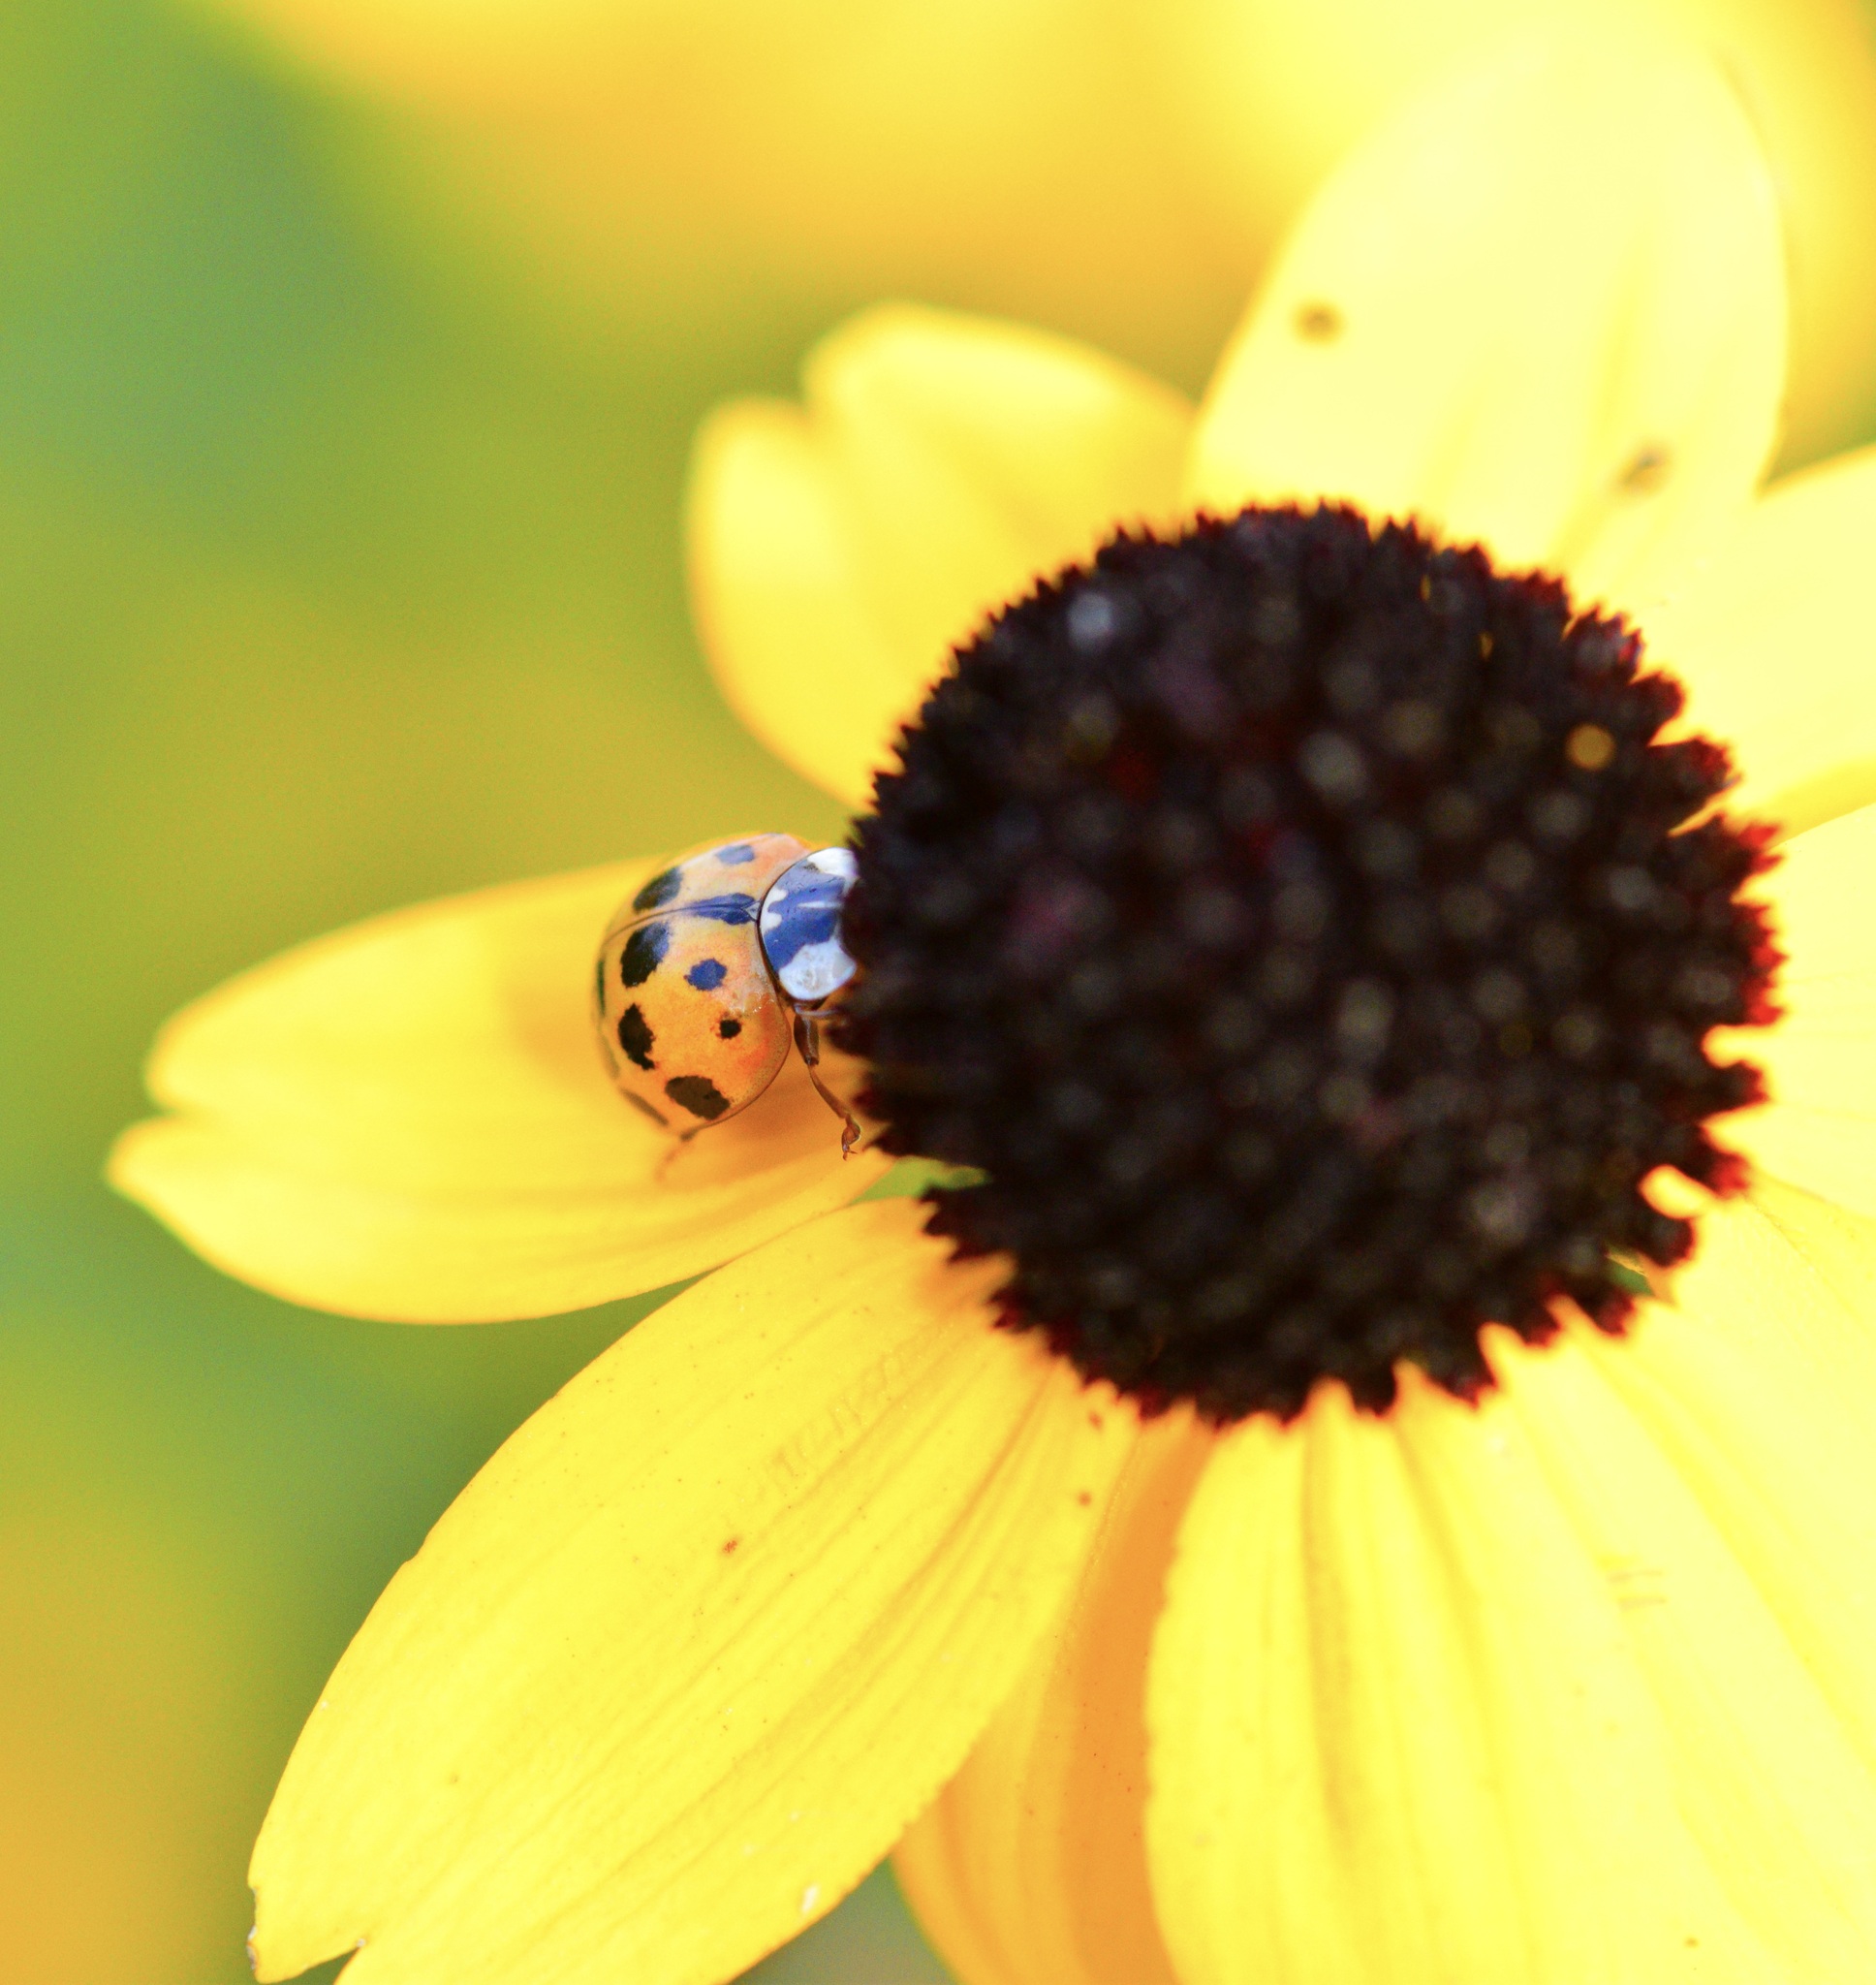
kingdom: Animalia
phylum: Arthropoda
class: Insecta
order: Coleoptera
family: Coccinellidae
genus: Harmonia
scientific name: Harmonia axyridis
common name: Harlequin ladybird
